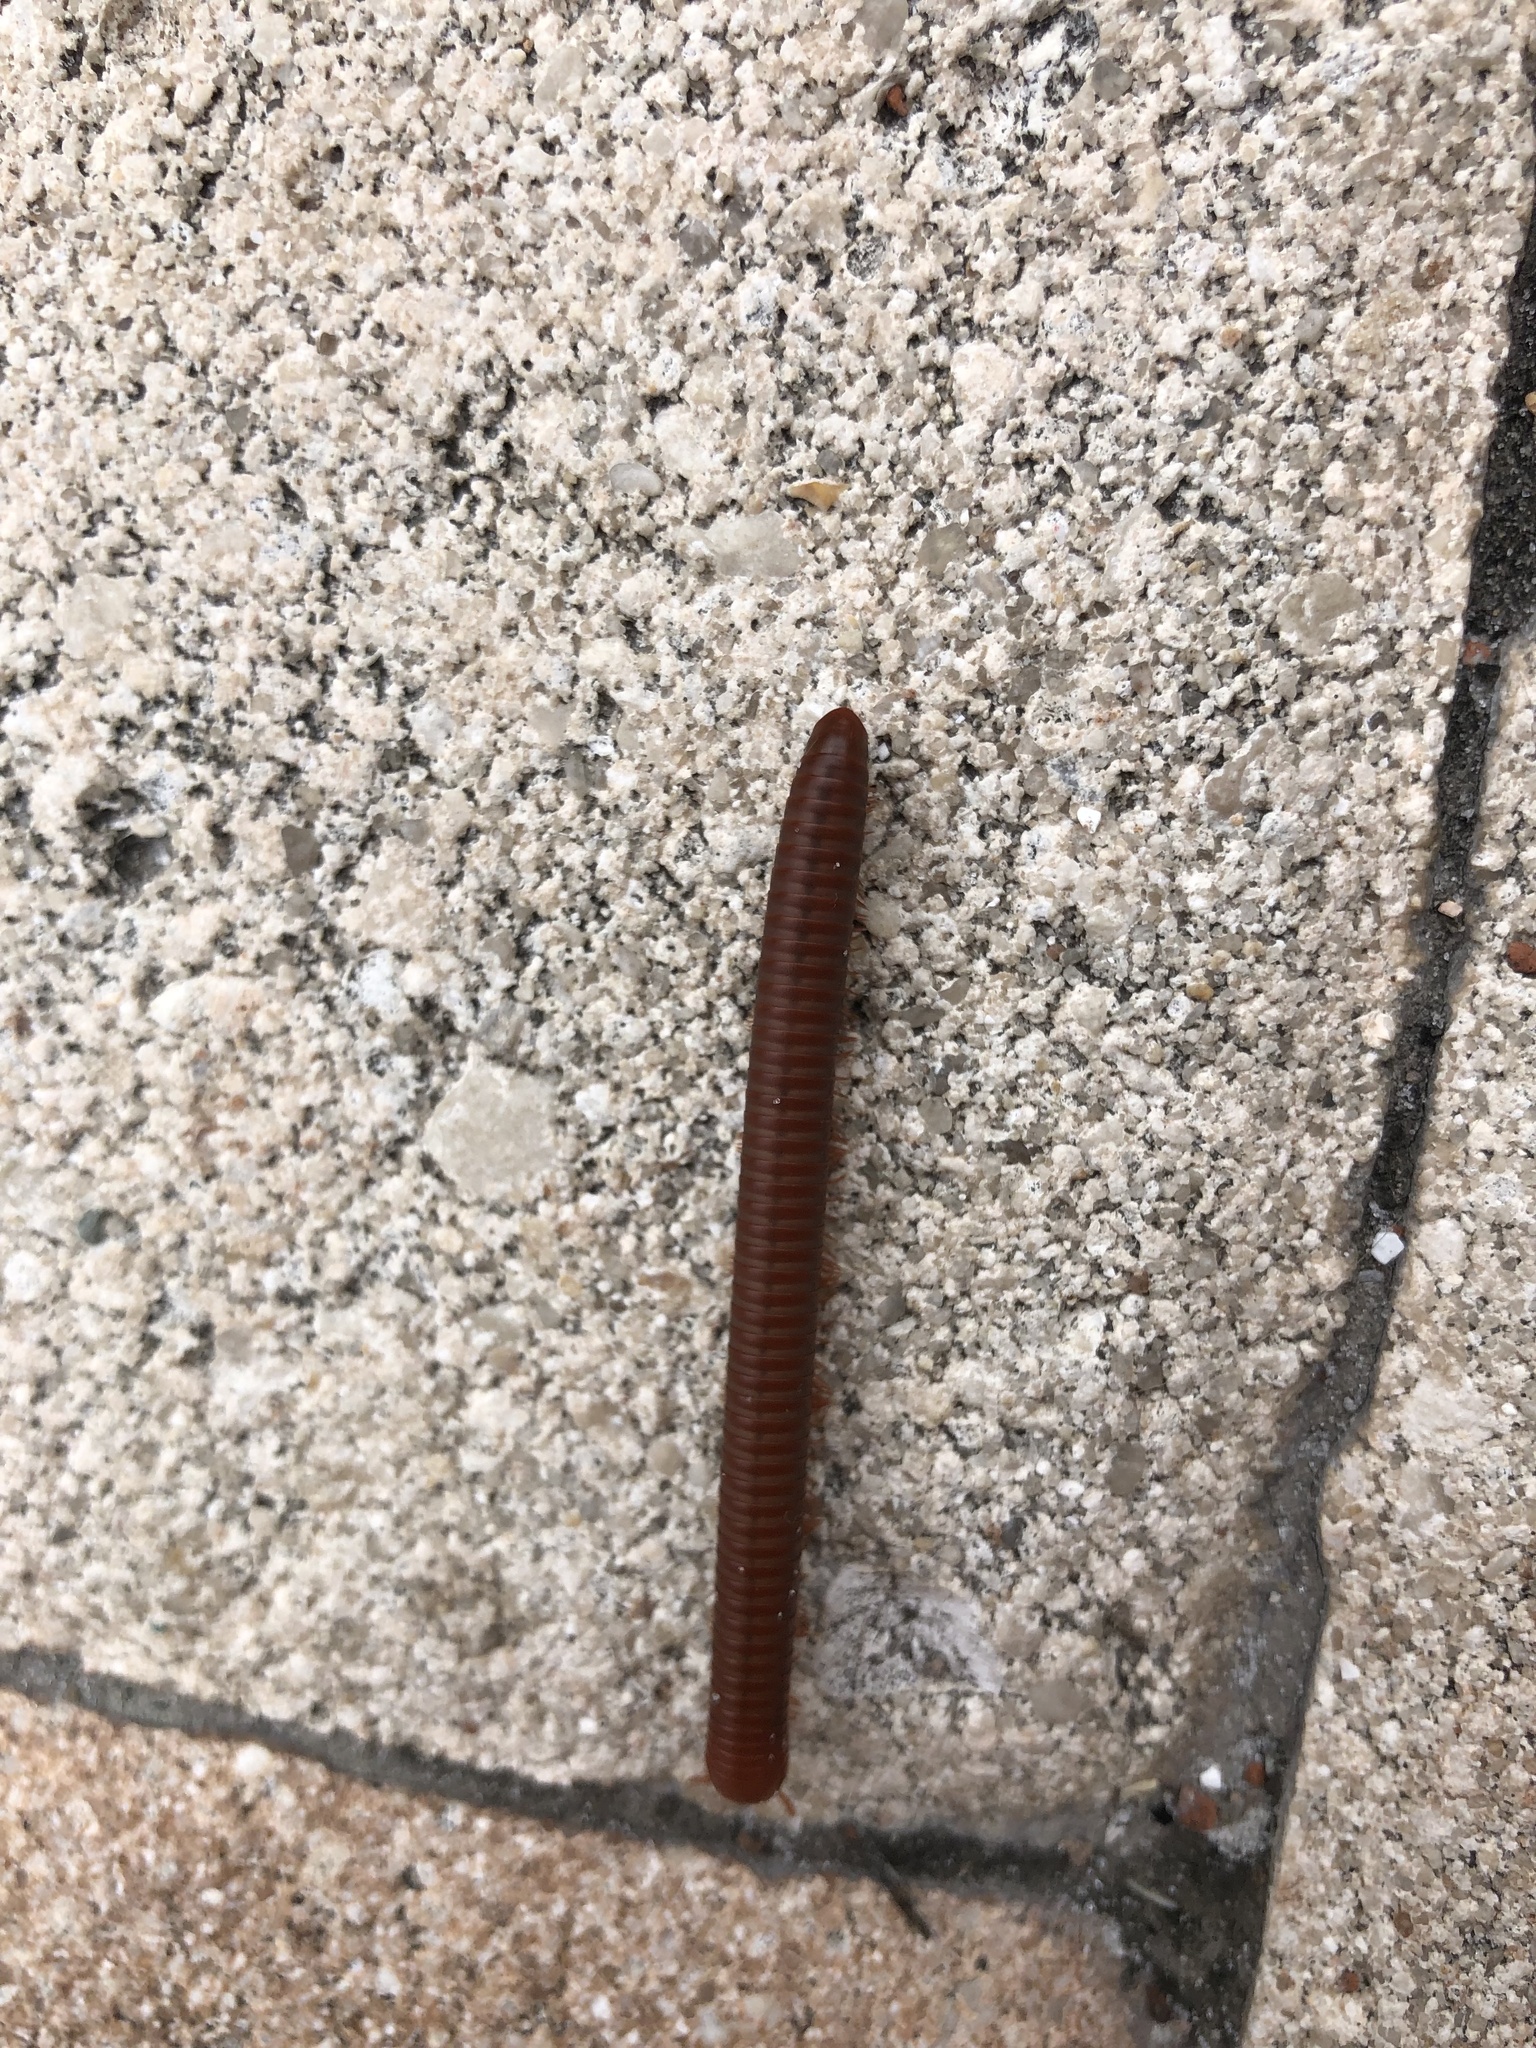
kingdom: Animalia
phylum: Arthropoda
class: Diplopoda
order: Spirobolida
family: Pachybolidae
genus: Trigoniulus
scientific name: Trigoniulus corallinus
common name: Millipede
